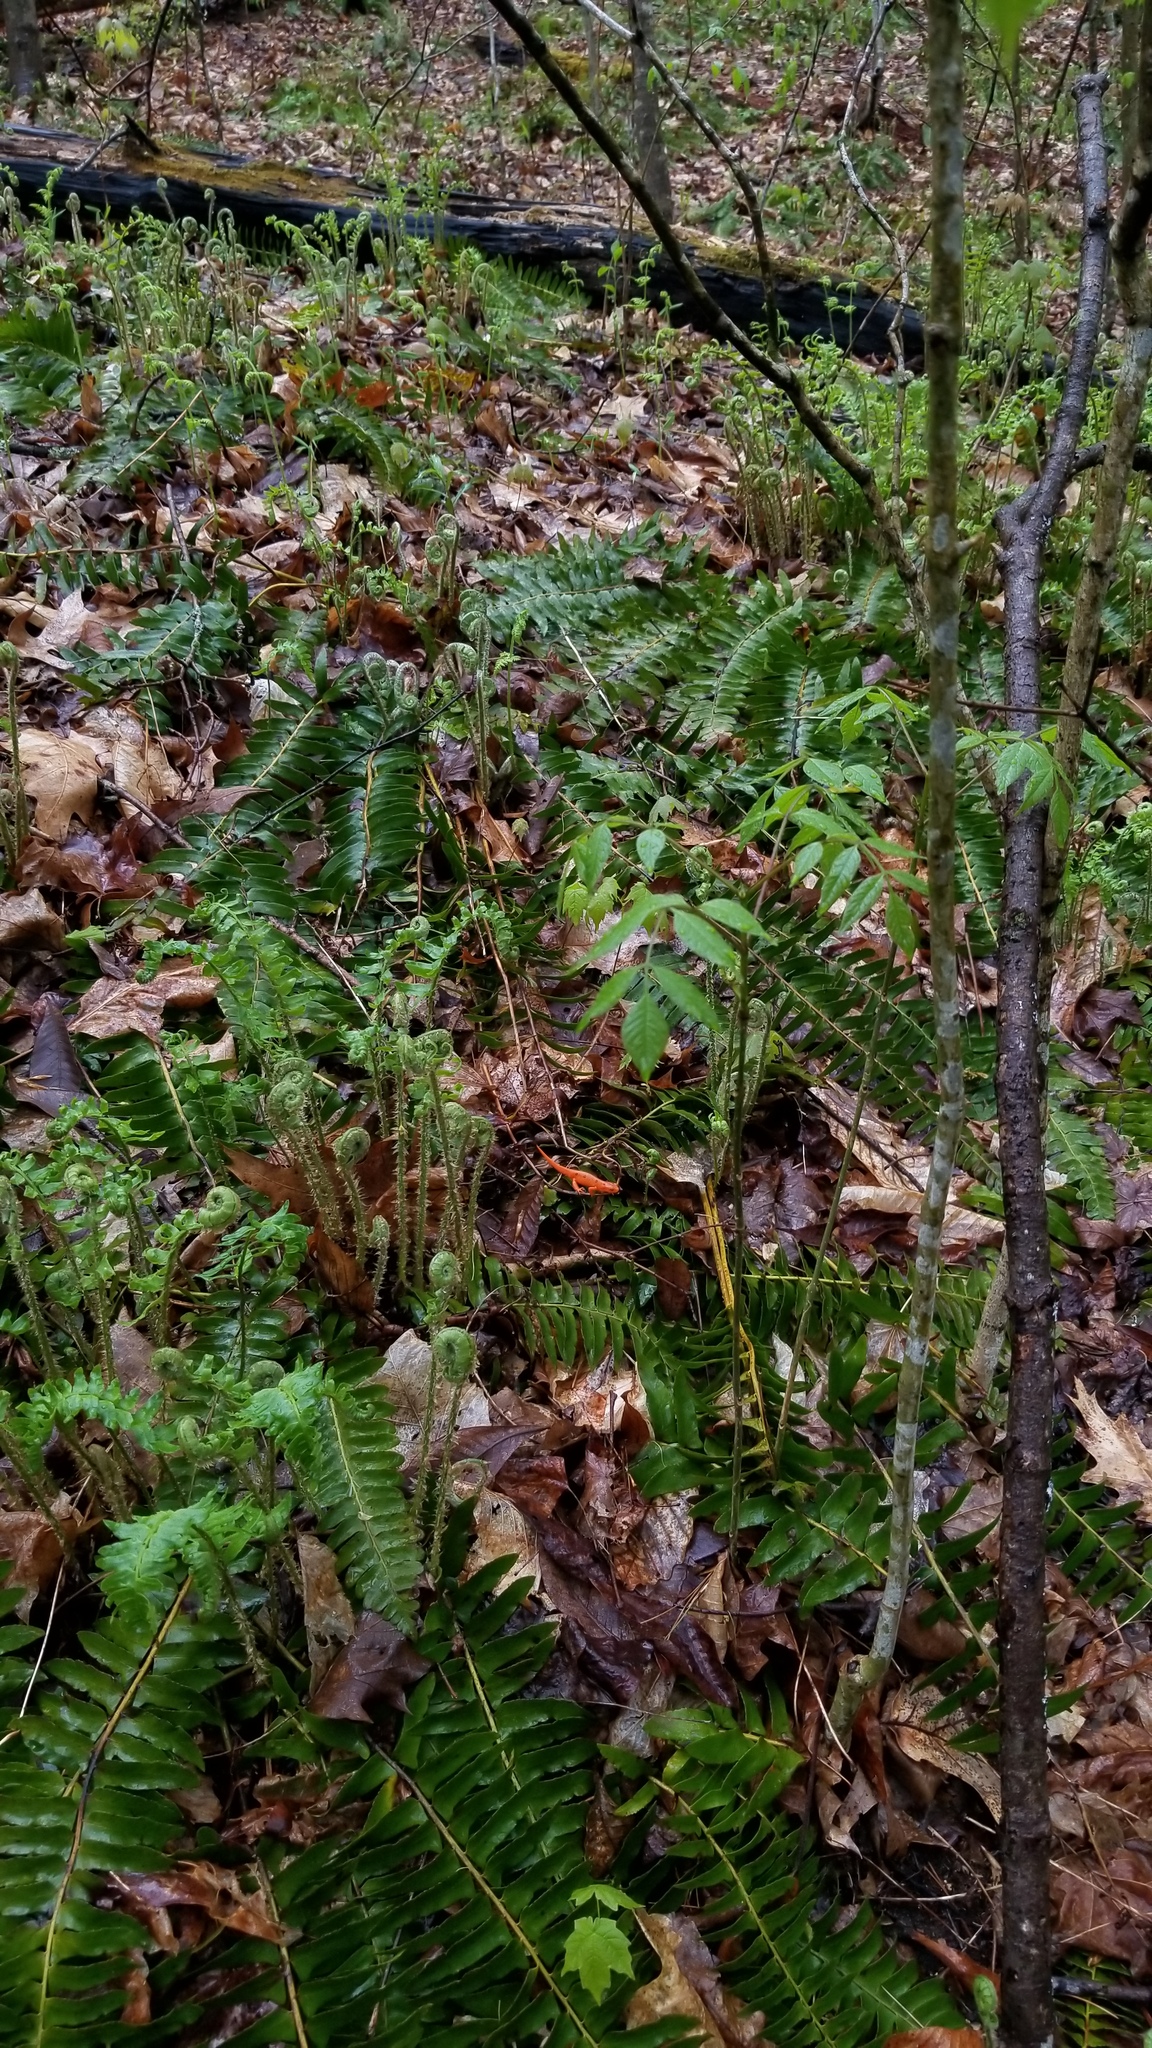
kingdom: Animalia
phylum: Chordata
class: Amphibia
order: Caudata
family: Salamandridae
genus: Notophthalmus
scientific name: Notophthalmus viridescens
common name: Eastern newt
